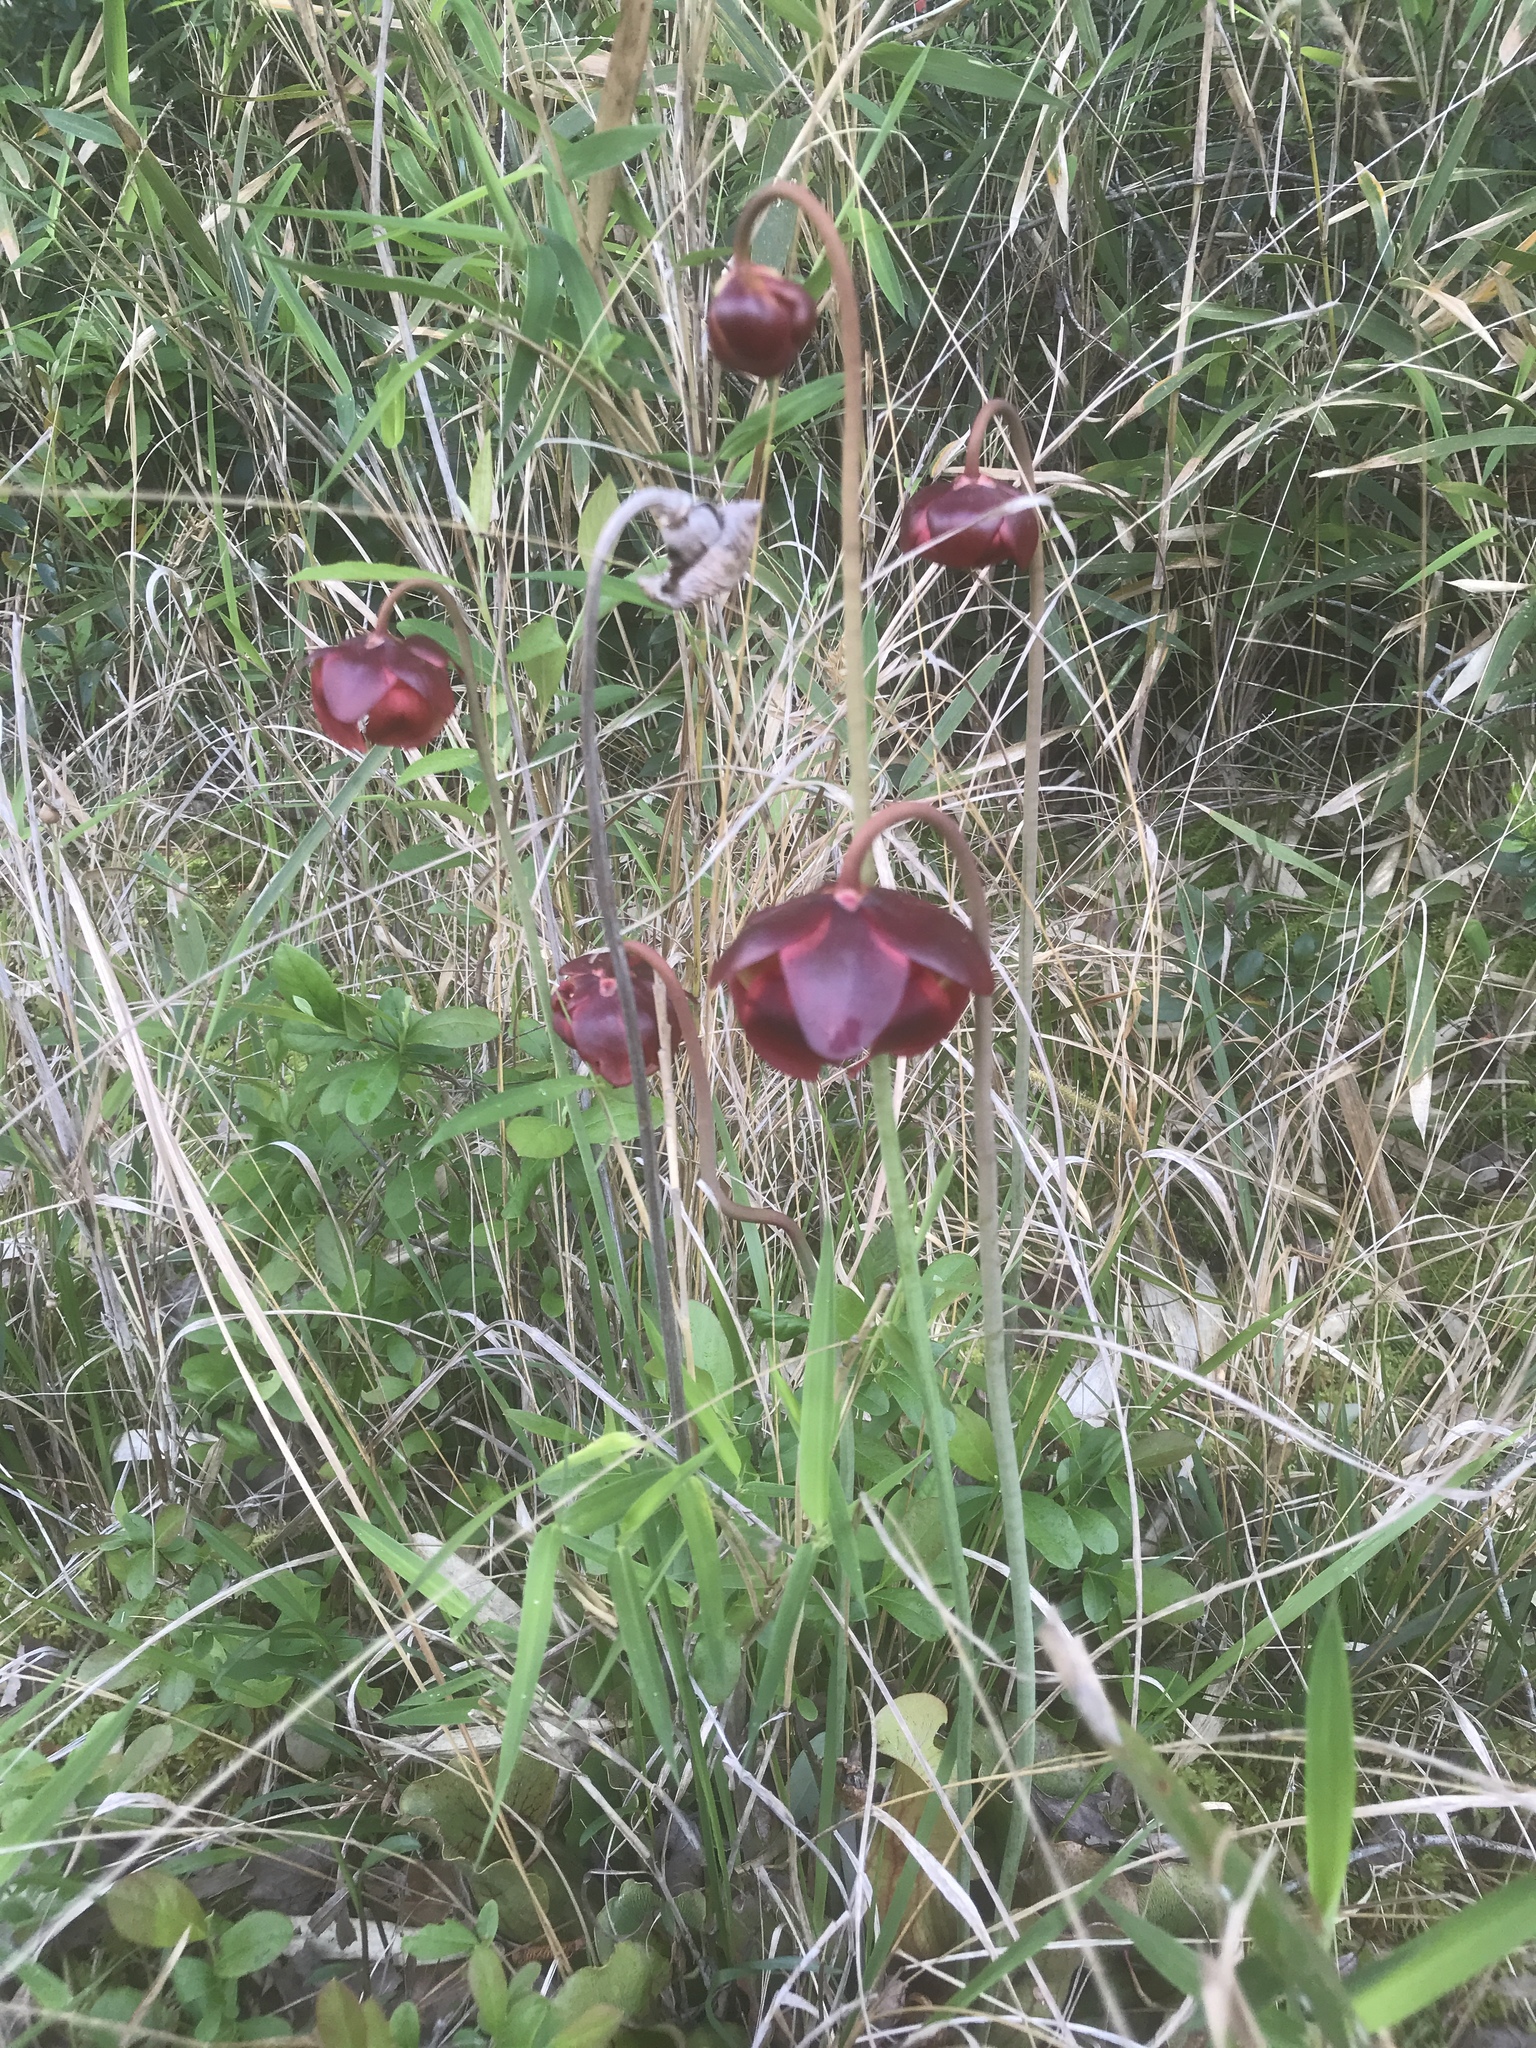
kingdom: Plantae
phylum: Tracheophyta
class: Magnoliopsida
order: Ericales
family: Sarraceniaceae
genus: Sarracenia
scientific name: Sarracenia purpurea
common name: Pitcherplant
